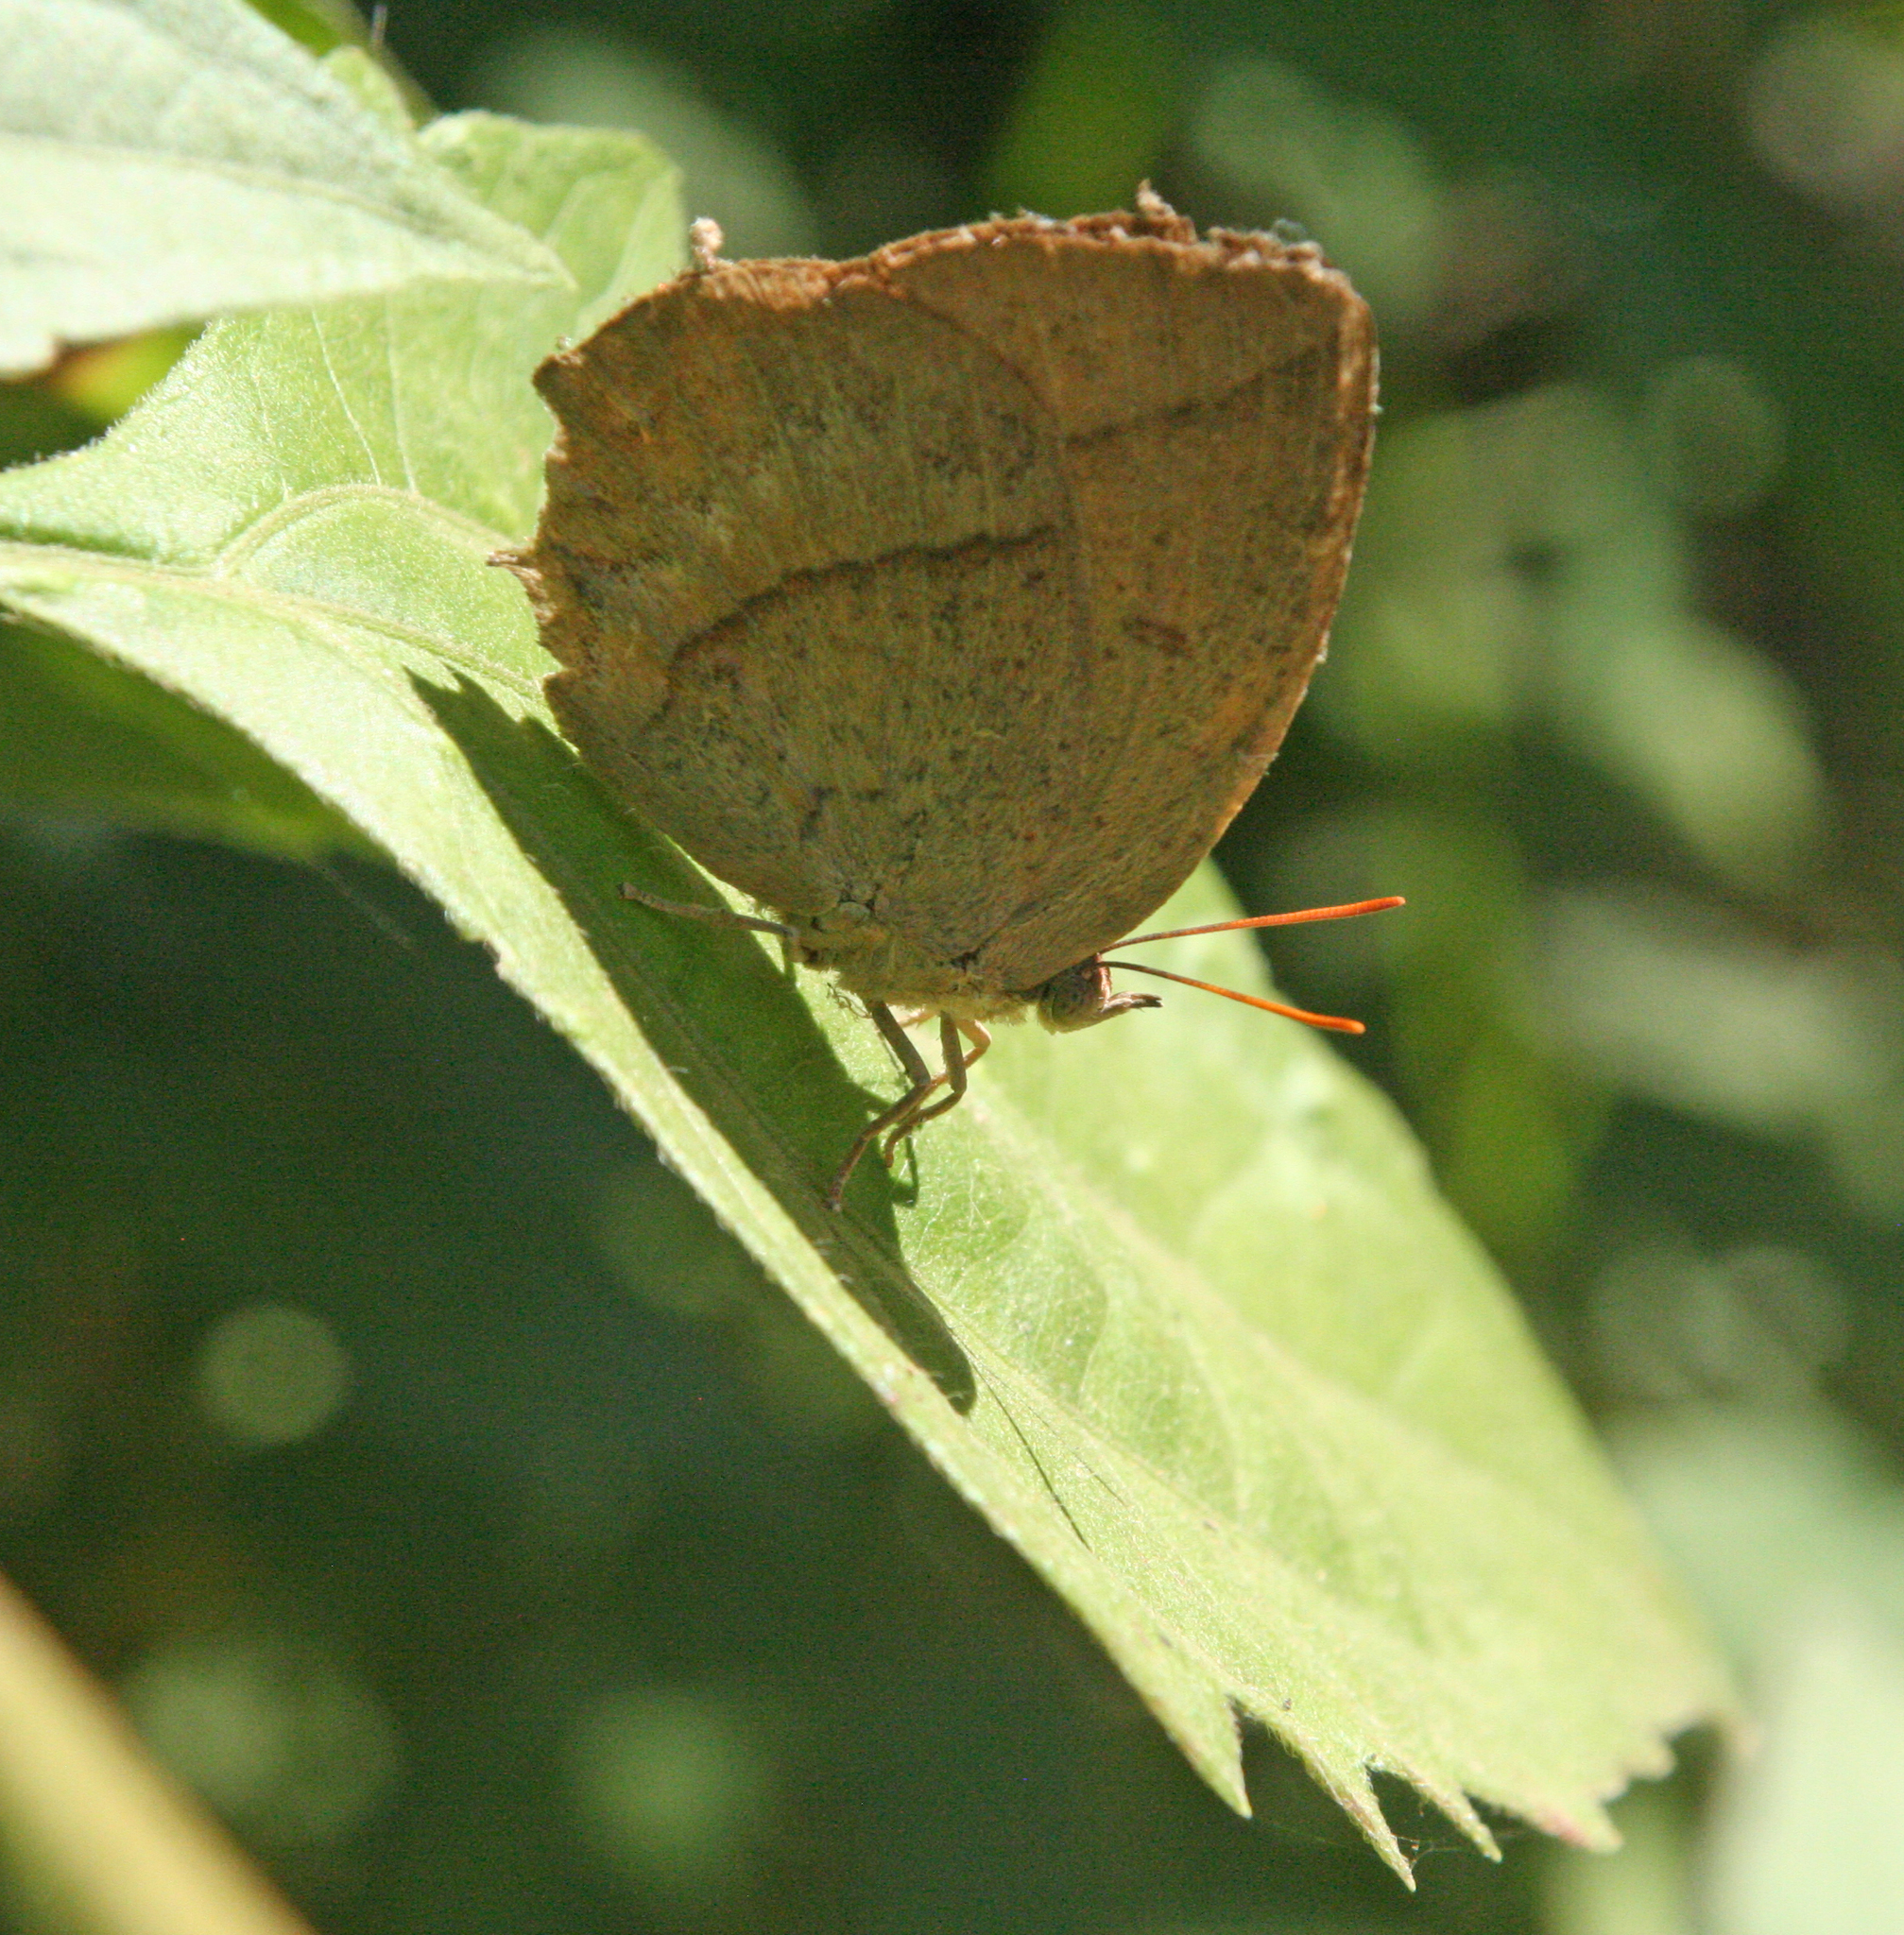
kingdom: Animalia
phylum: Arthropoda
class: Insecta
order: Lepidoptera
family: Lycaenidae
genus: Amblypodia
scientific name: Amblypodia anita
